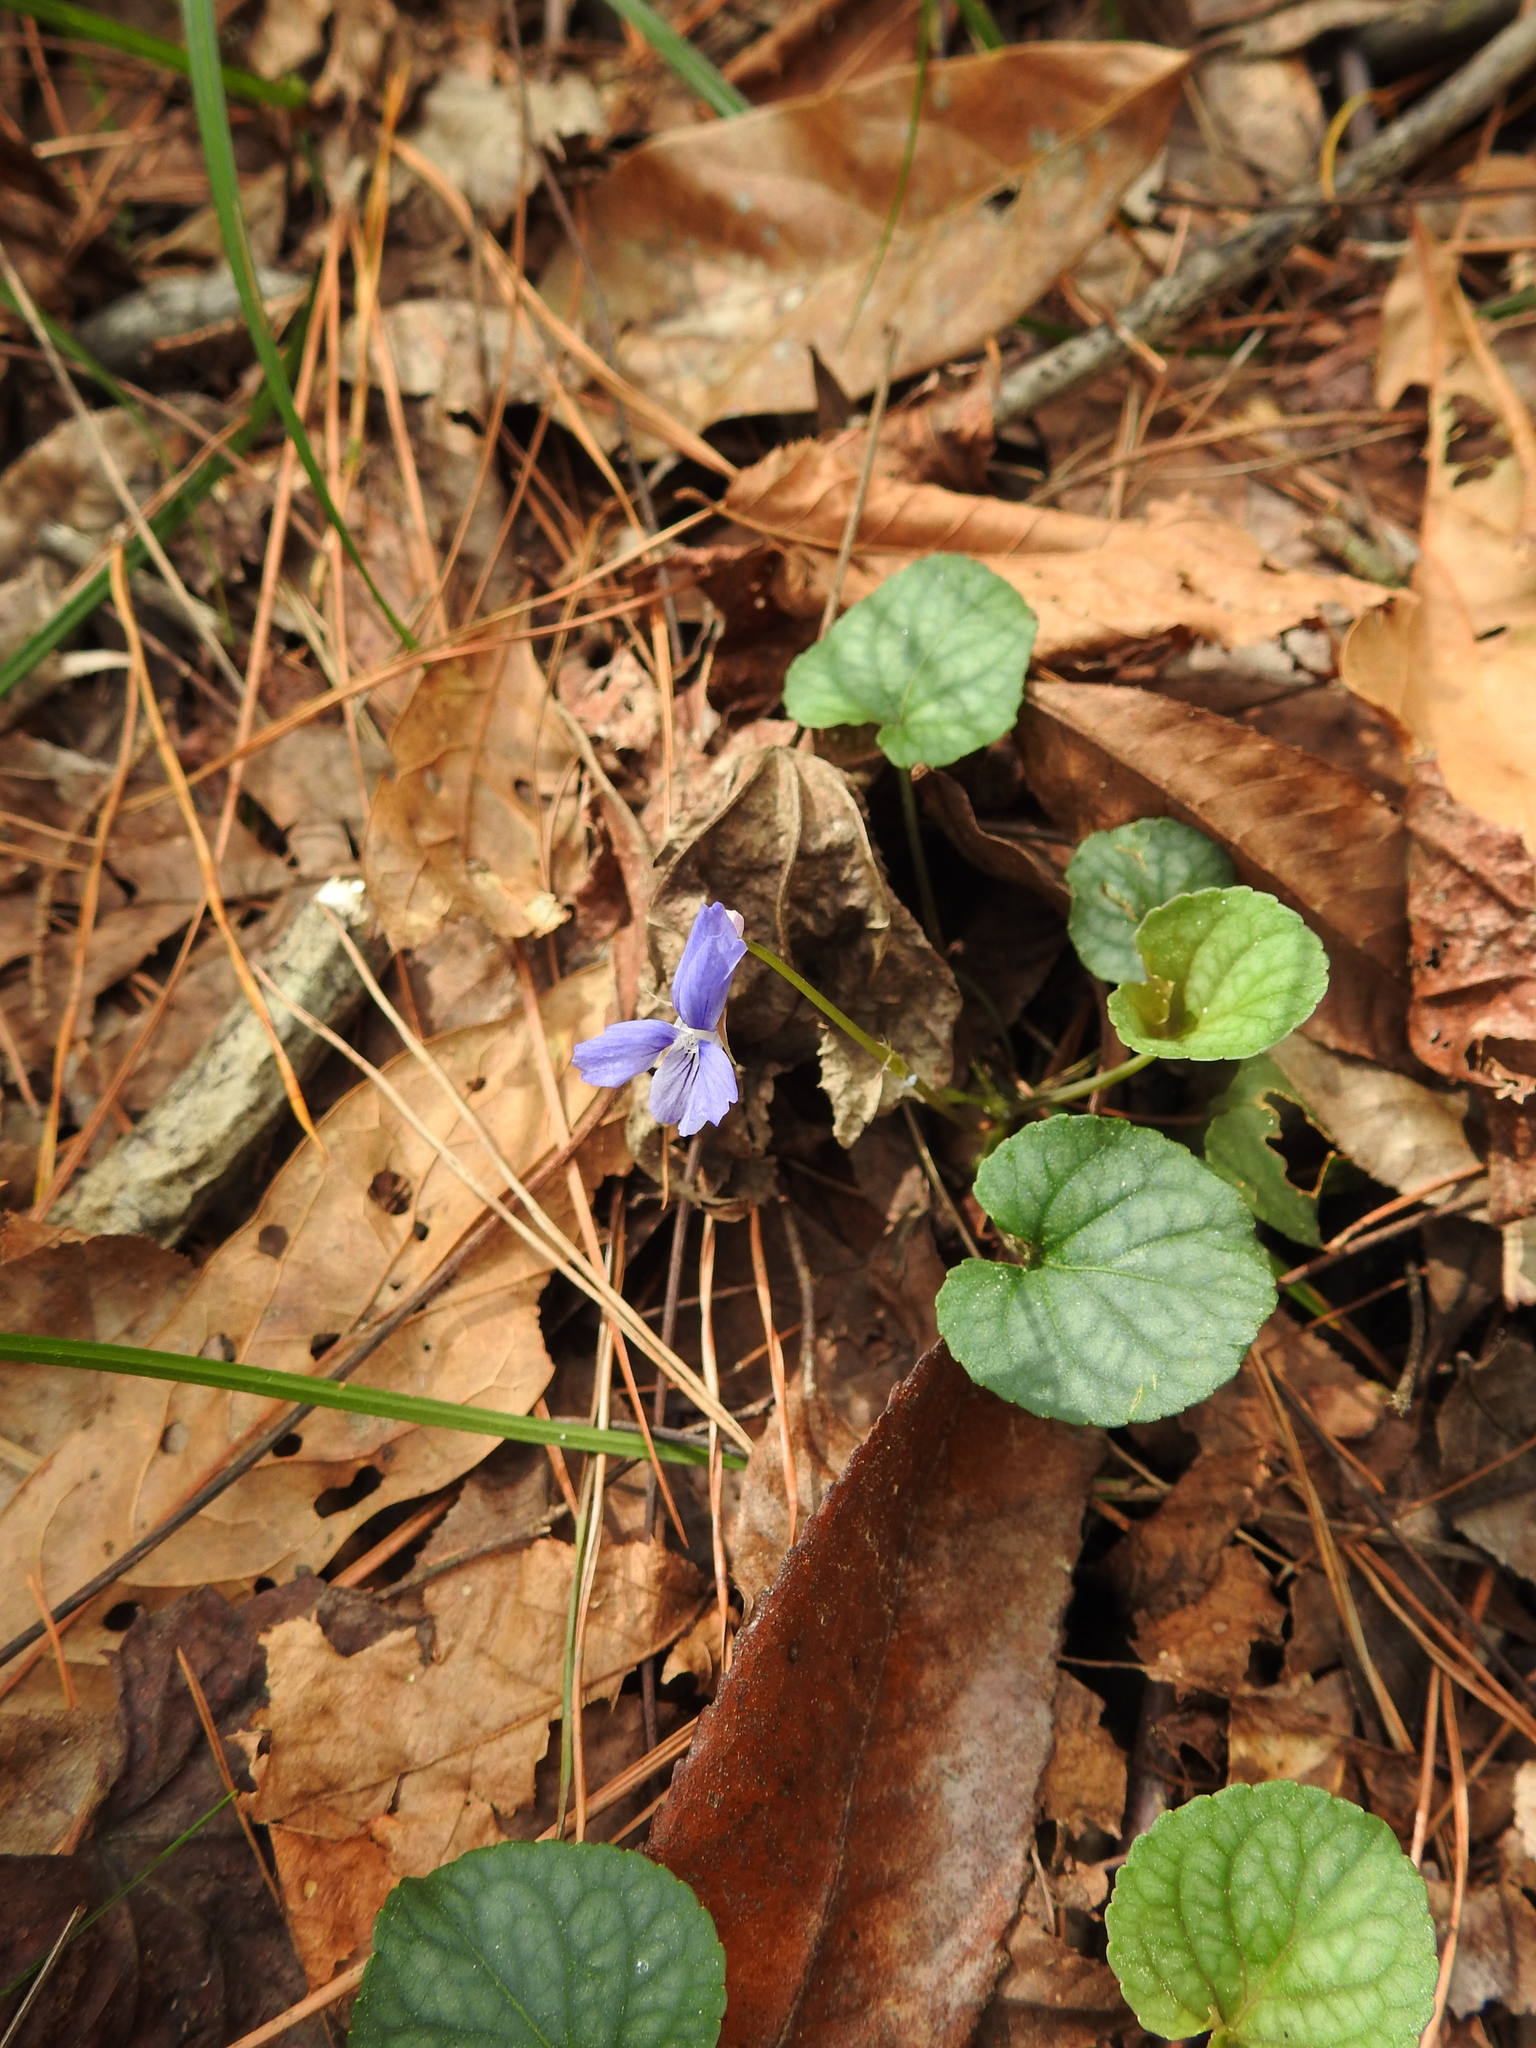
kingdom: Plantae
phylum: Tracheophyta
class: Magnoliopsida
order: Malpighiales
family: Violaceae
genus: Viola
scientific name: Viola walteri
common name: Prostrate southern violet
